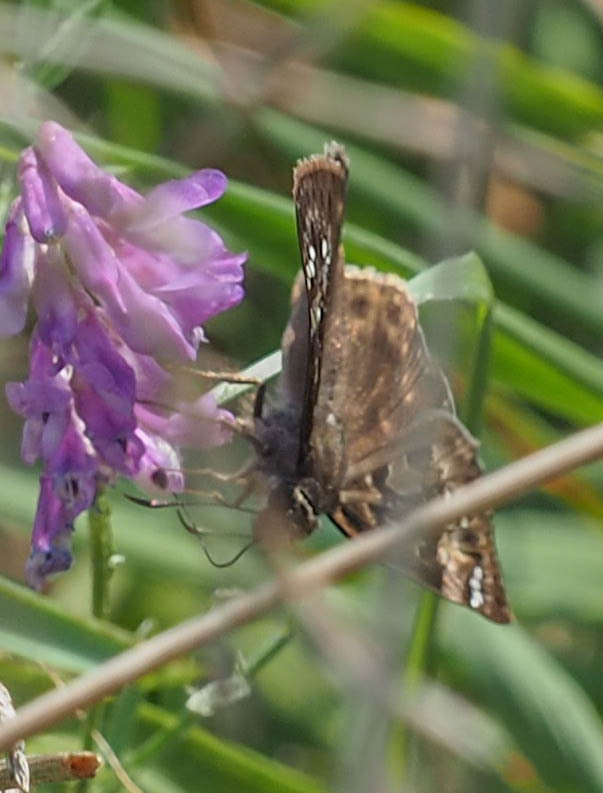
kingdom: Animalia
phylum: Arthropoda
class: Insecta
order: Lepidoptera
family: Hesperiidae
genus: Erynnis
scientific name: Erynnis horatius
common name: Horace's duskywing
